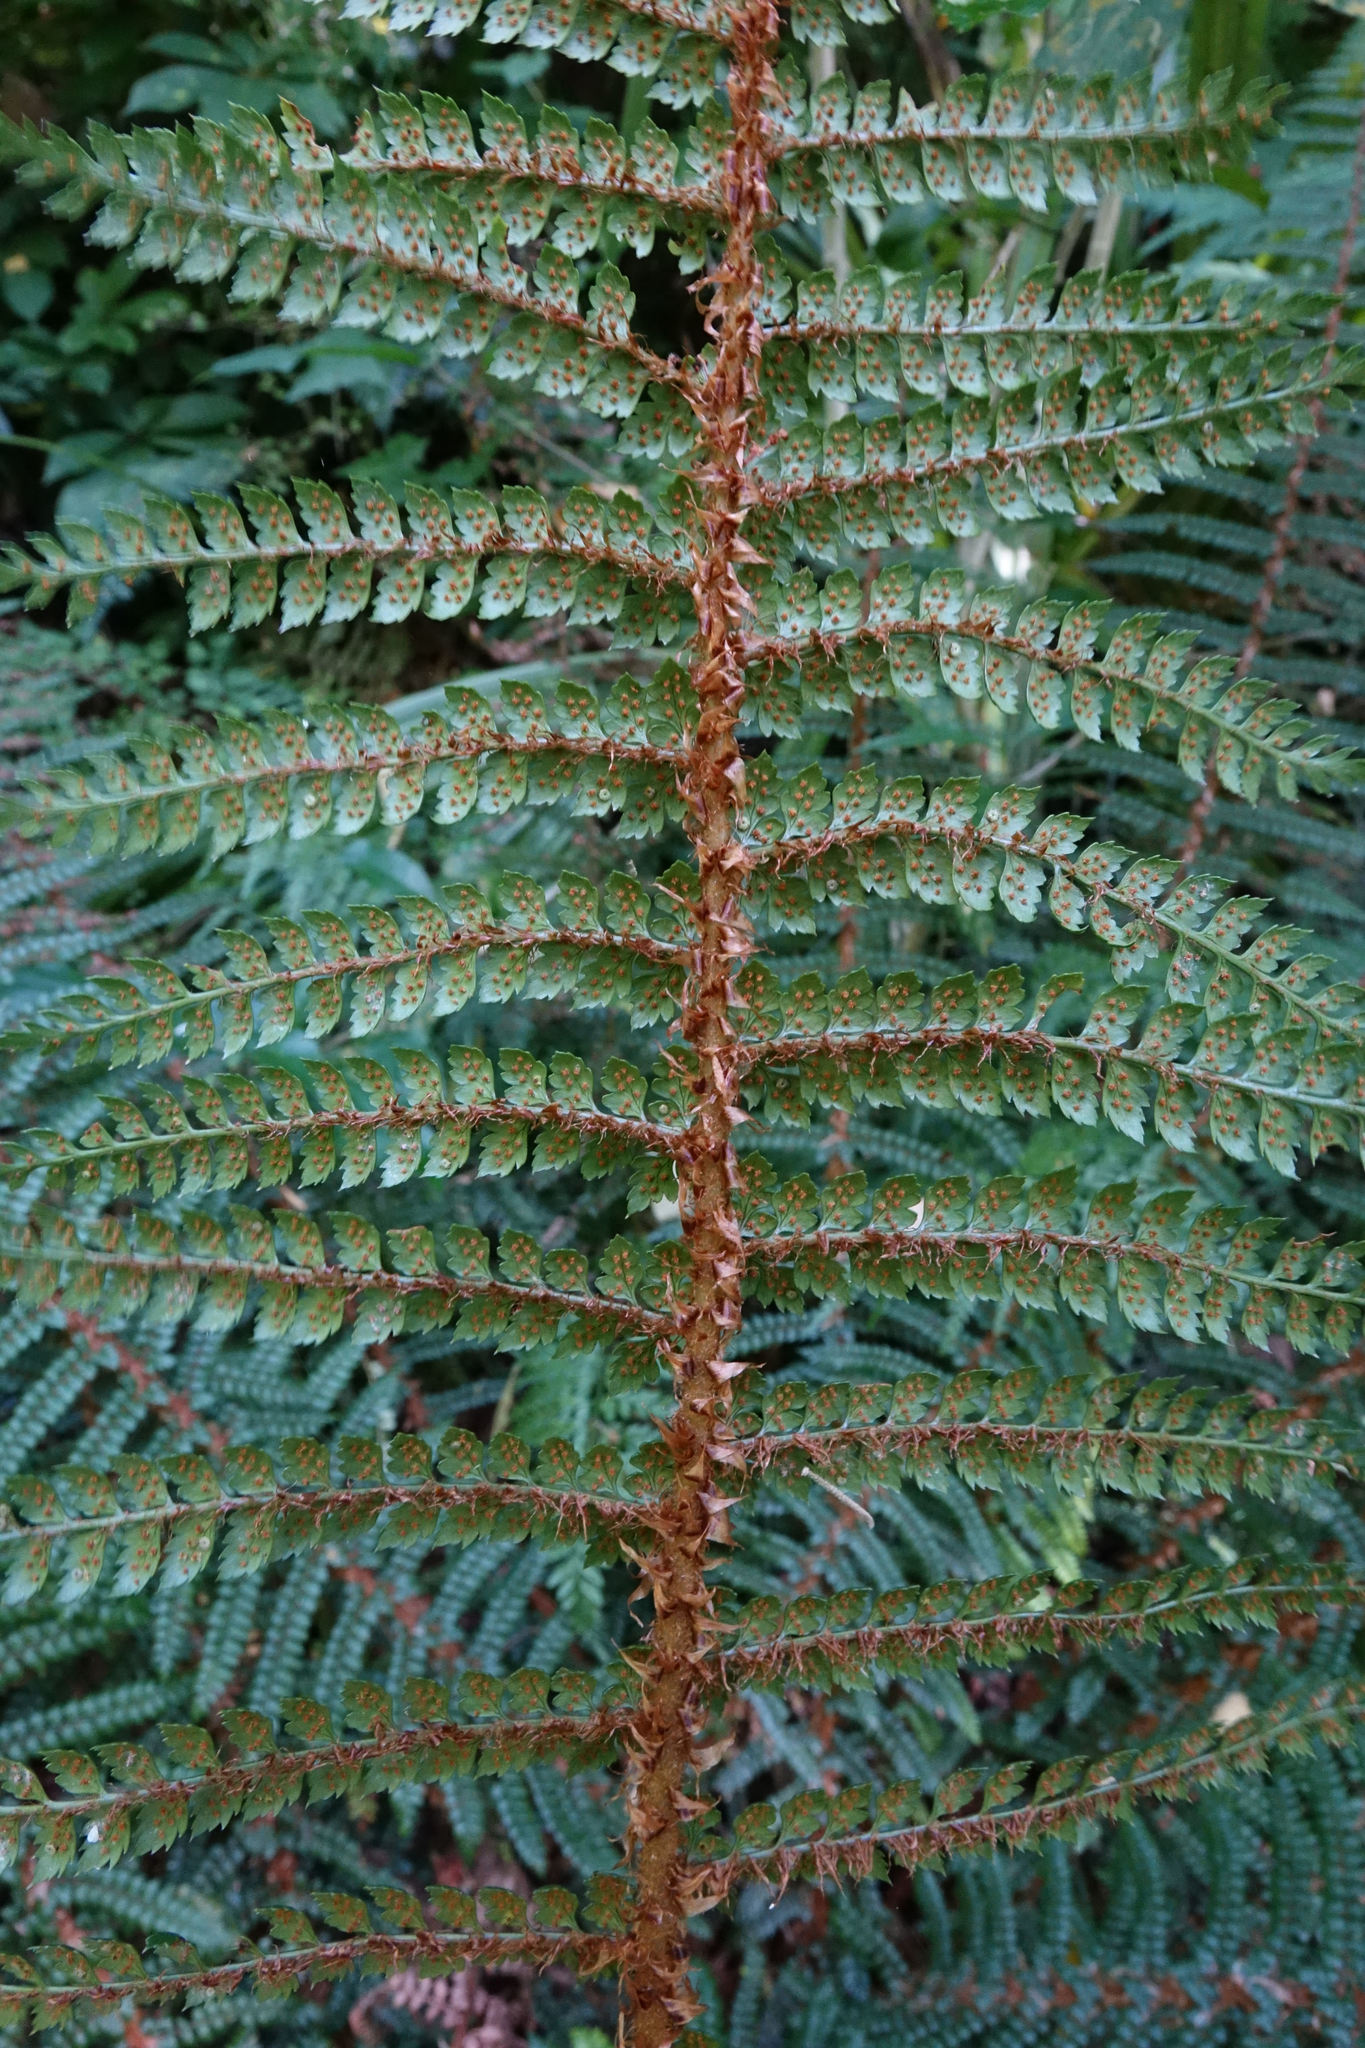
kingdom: Plantae
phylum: Tracheophyta
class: Polypodiopsida
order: Polypodiales
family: Dryopteridaceae
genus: Polystichum
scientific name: Polystichum vestitum
